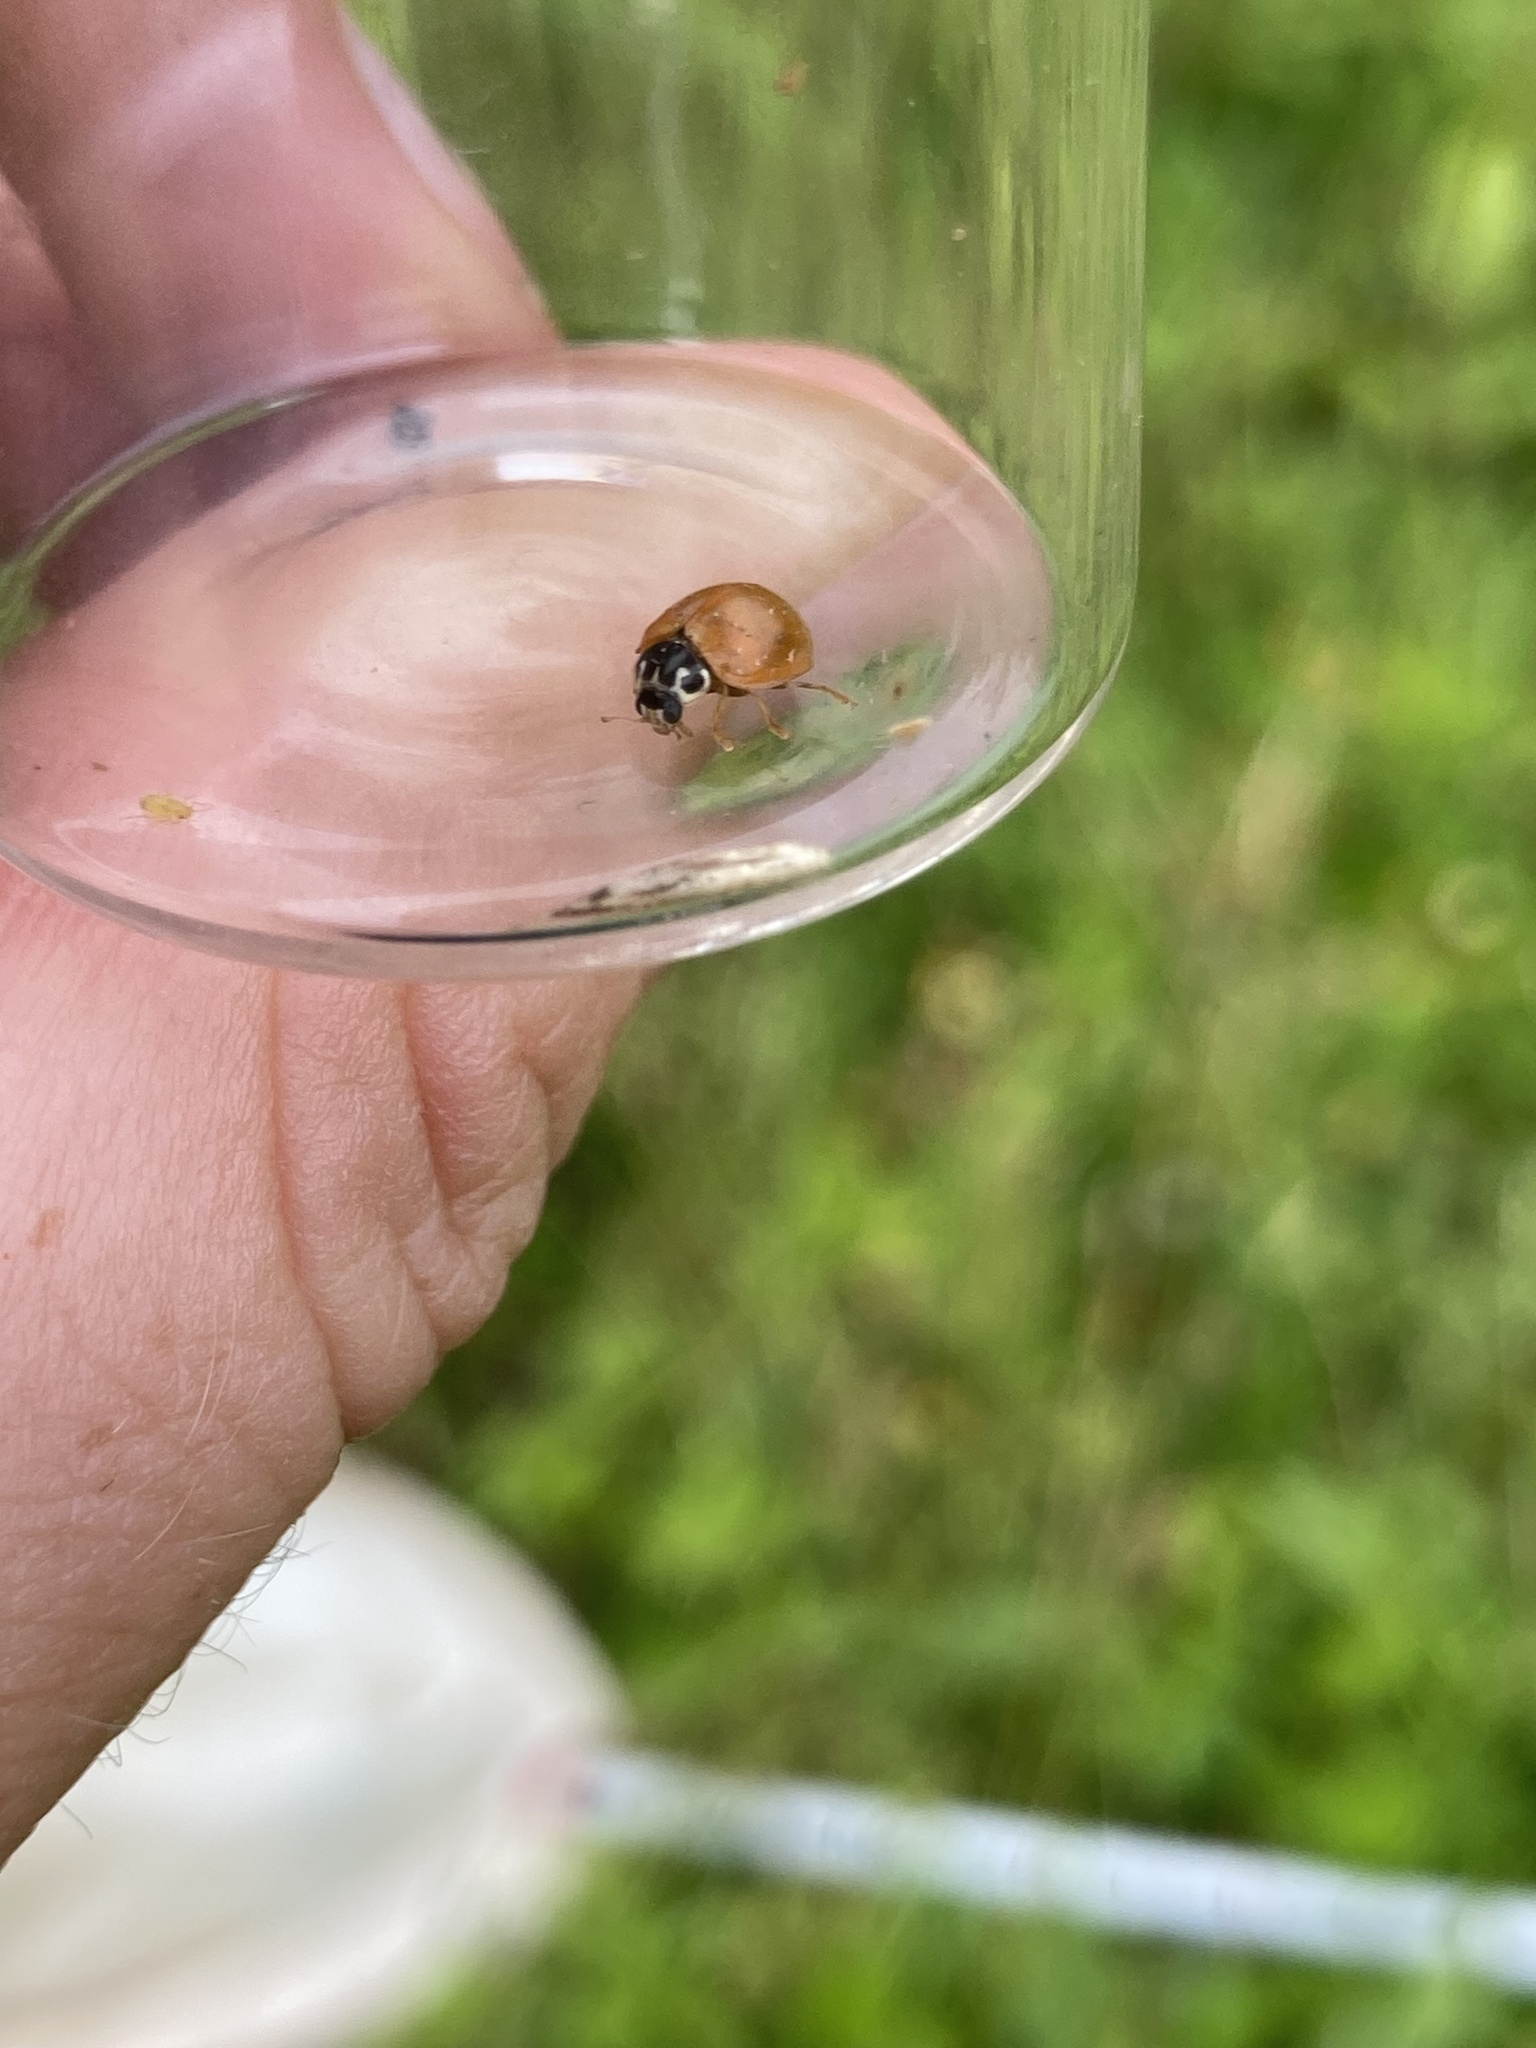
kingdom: Animalia
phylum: Arthropoda
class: Insecta
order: Coleoptera
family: Coccinellidae
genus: Cycloneda
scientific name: Cycloneda munda
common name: Polished lady beetle
